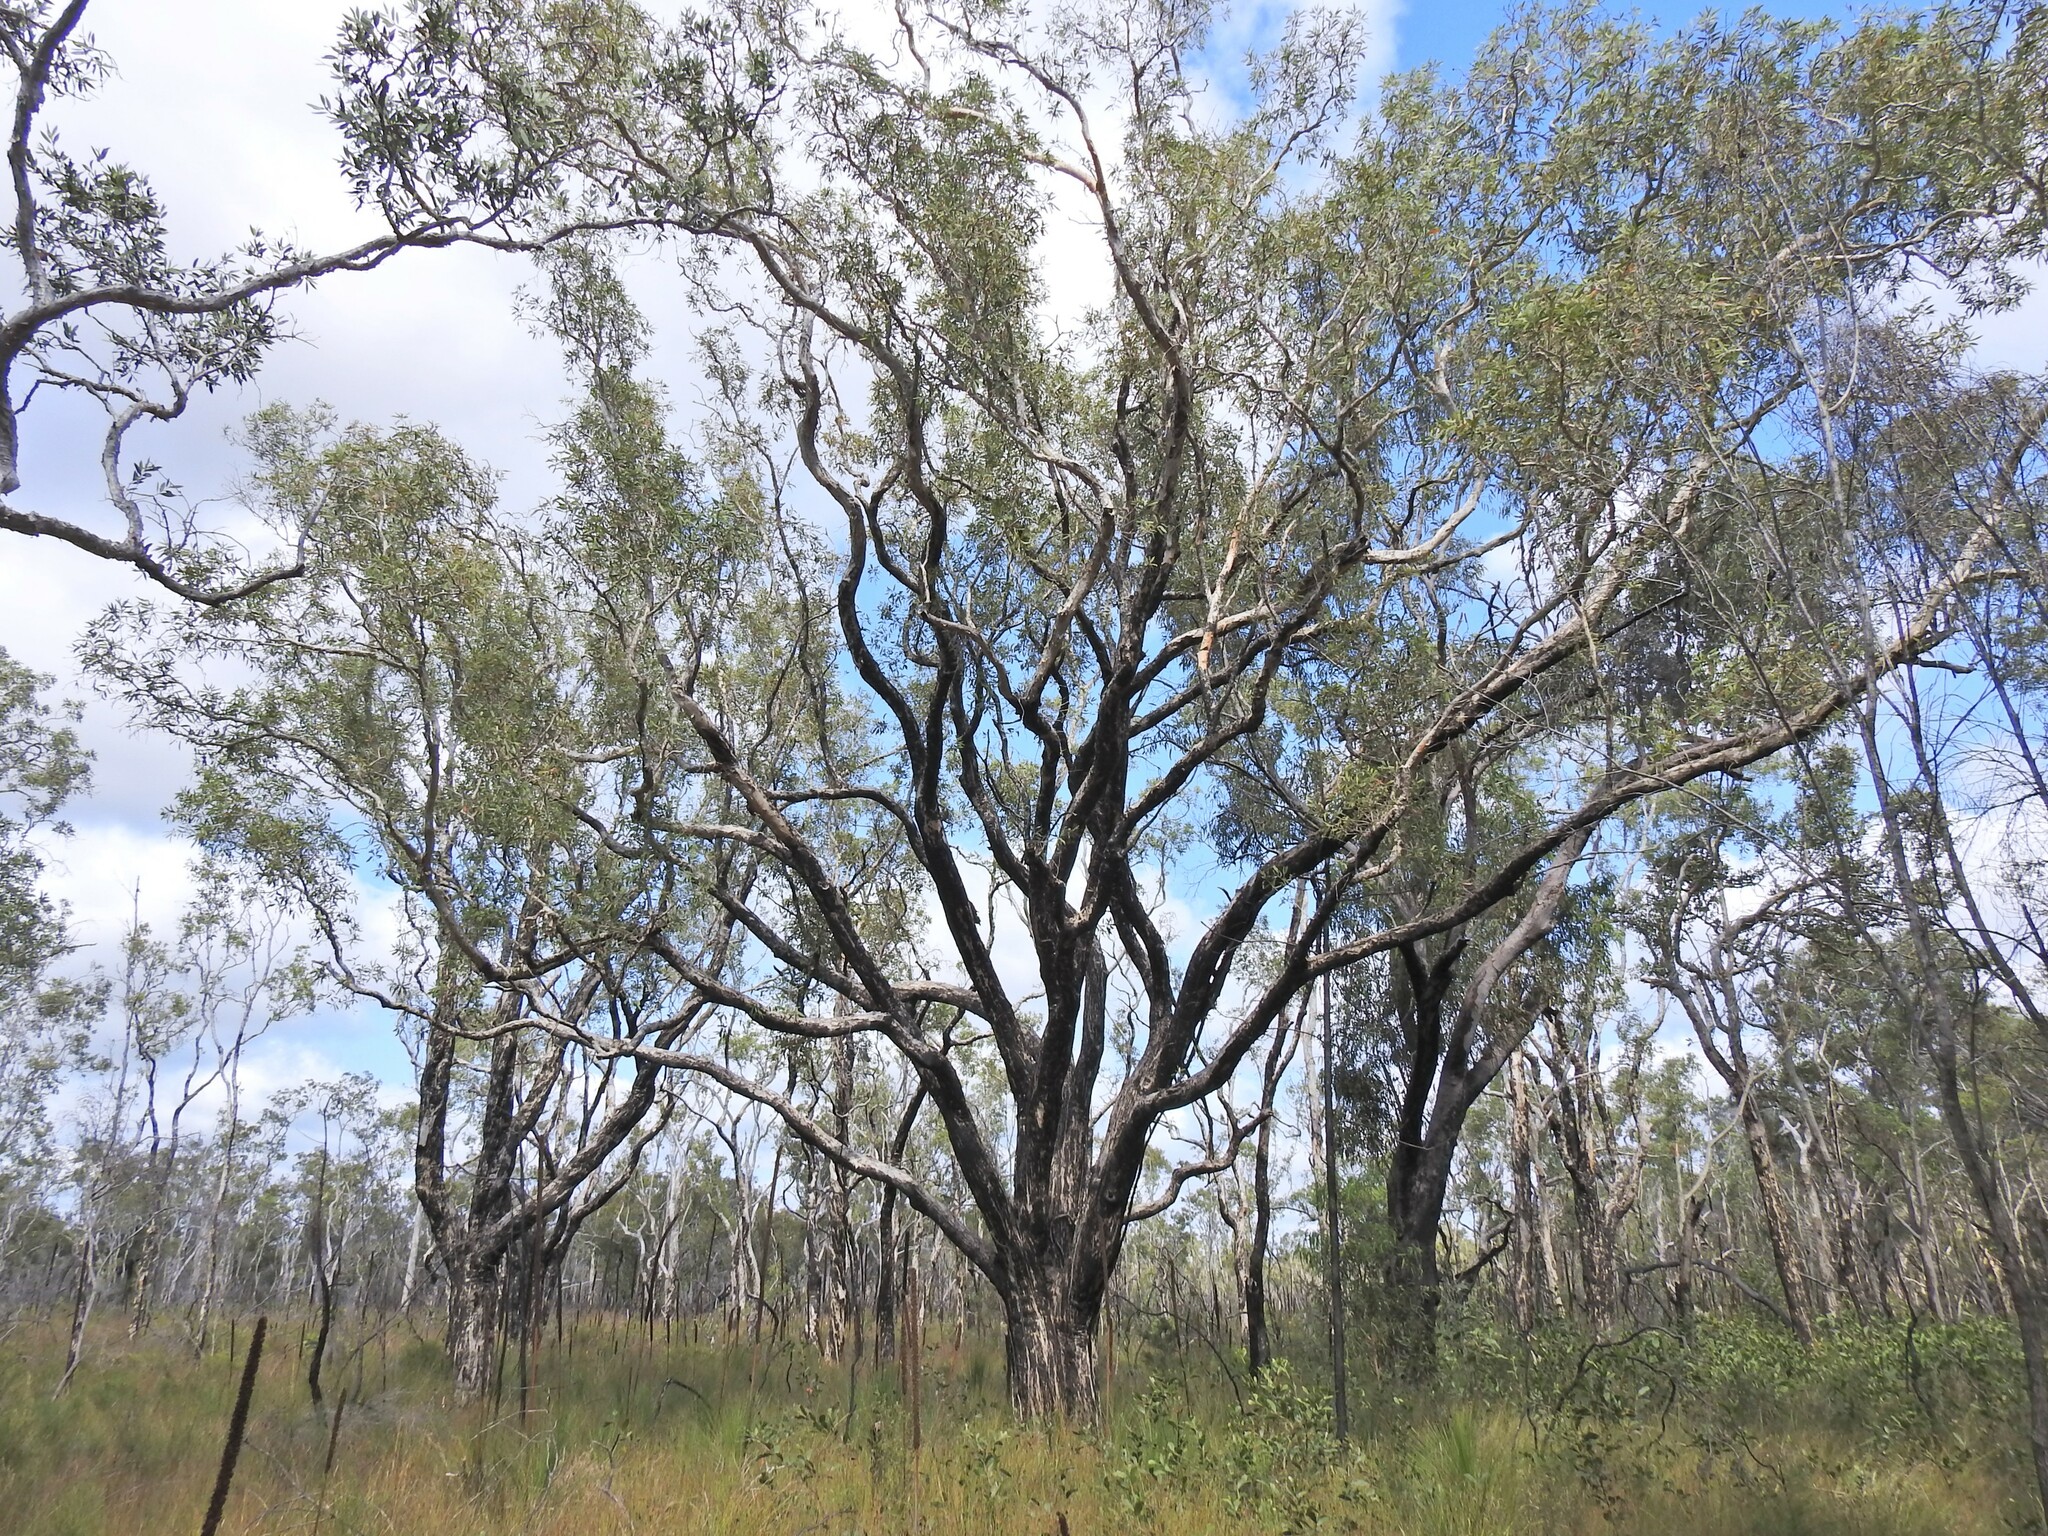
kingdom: Plantae
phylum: Tracheophyta
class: Magnoliopsida
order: Myrtales
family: Myrtaceae
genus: Melaleuca
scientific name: Melaleuca quinquenervia
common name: Punktree
